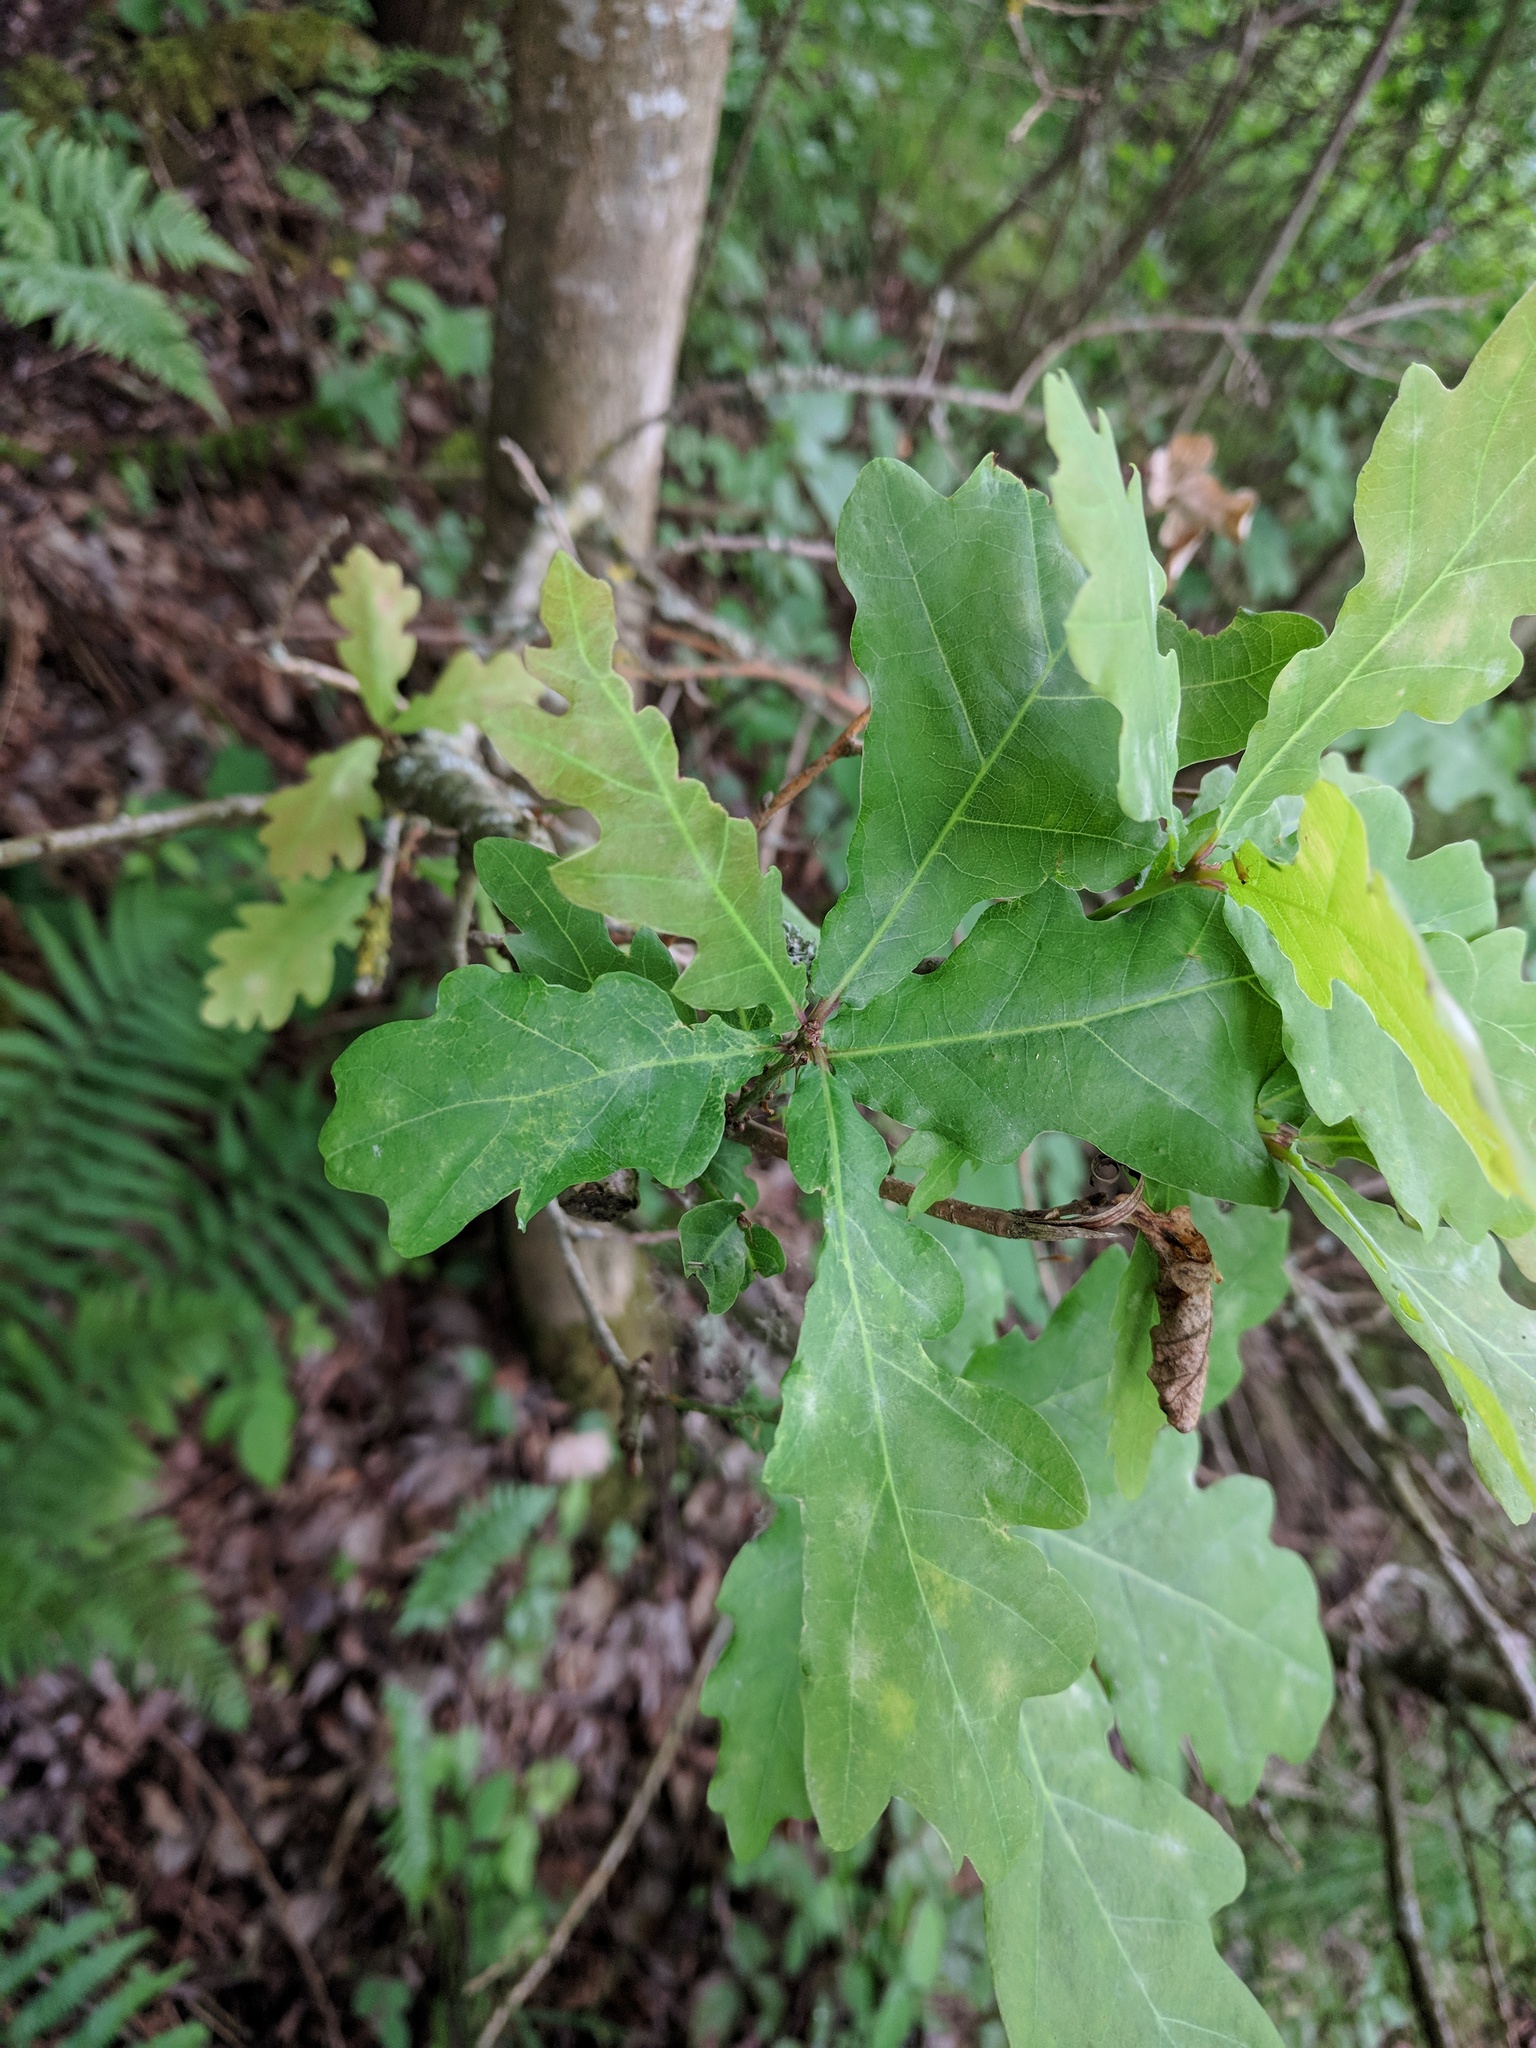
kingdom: Plantae
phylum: Tracheophyta
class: Magnoliopsida
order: Fagales
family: Fagaceae
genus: Quercus
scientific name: Quercus robur
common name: Pedunculate oak
